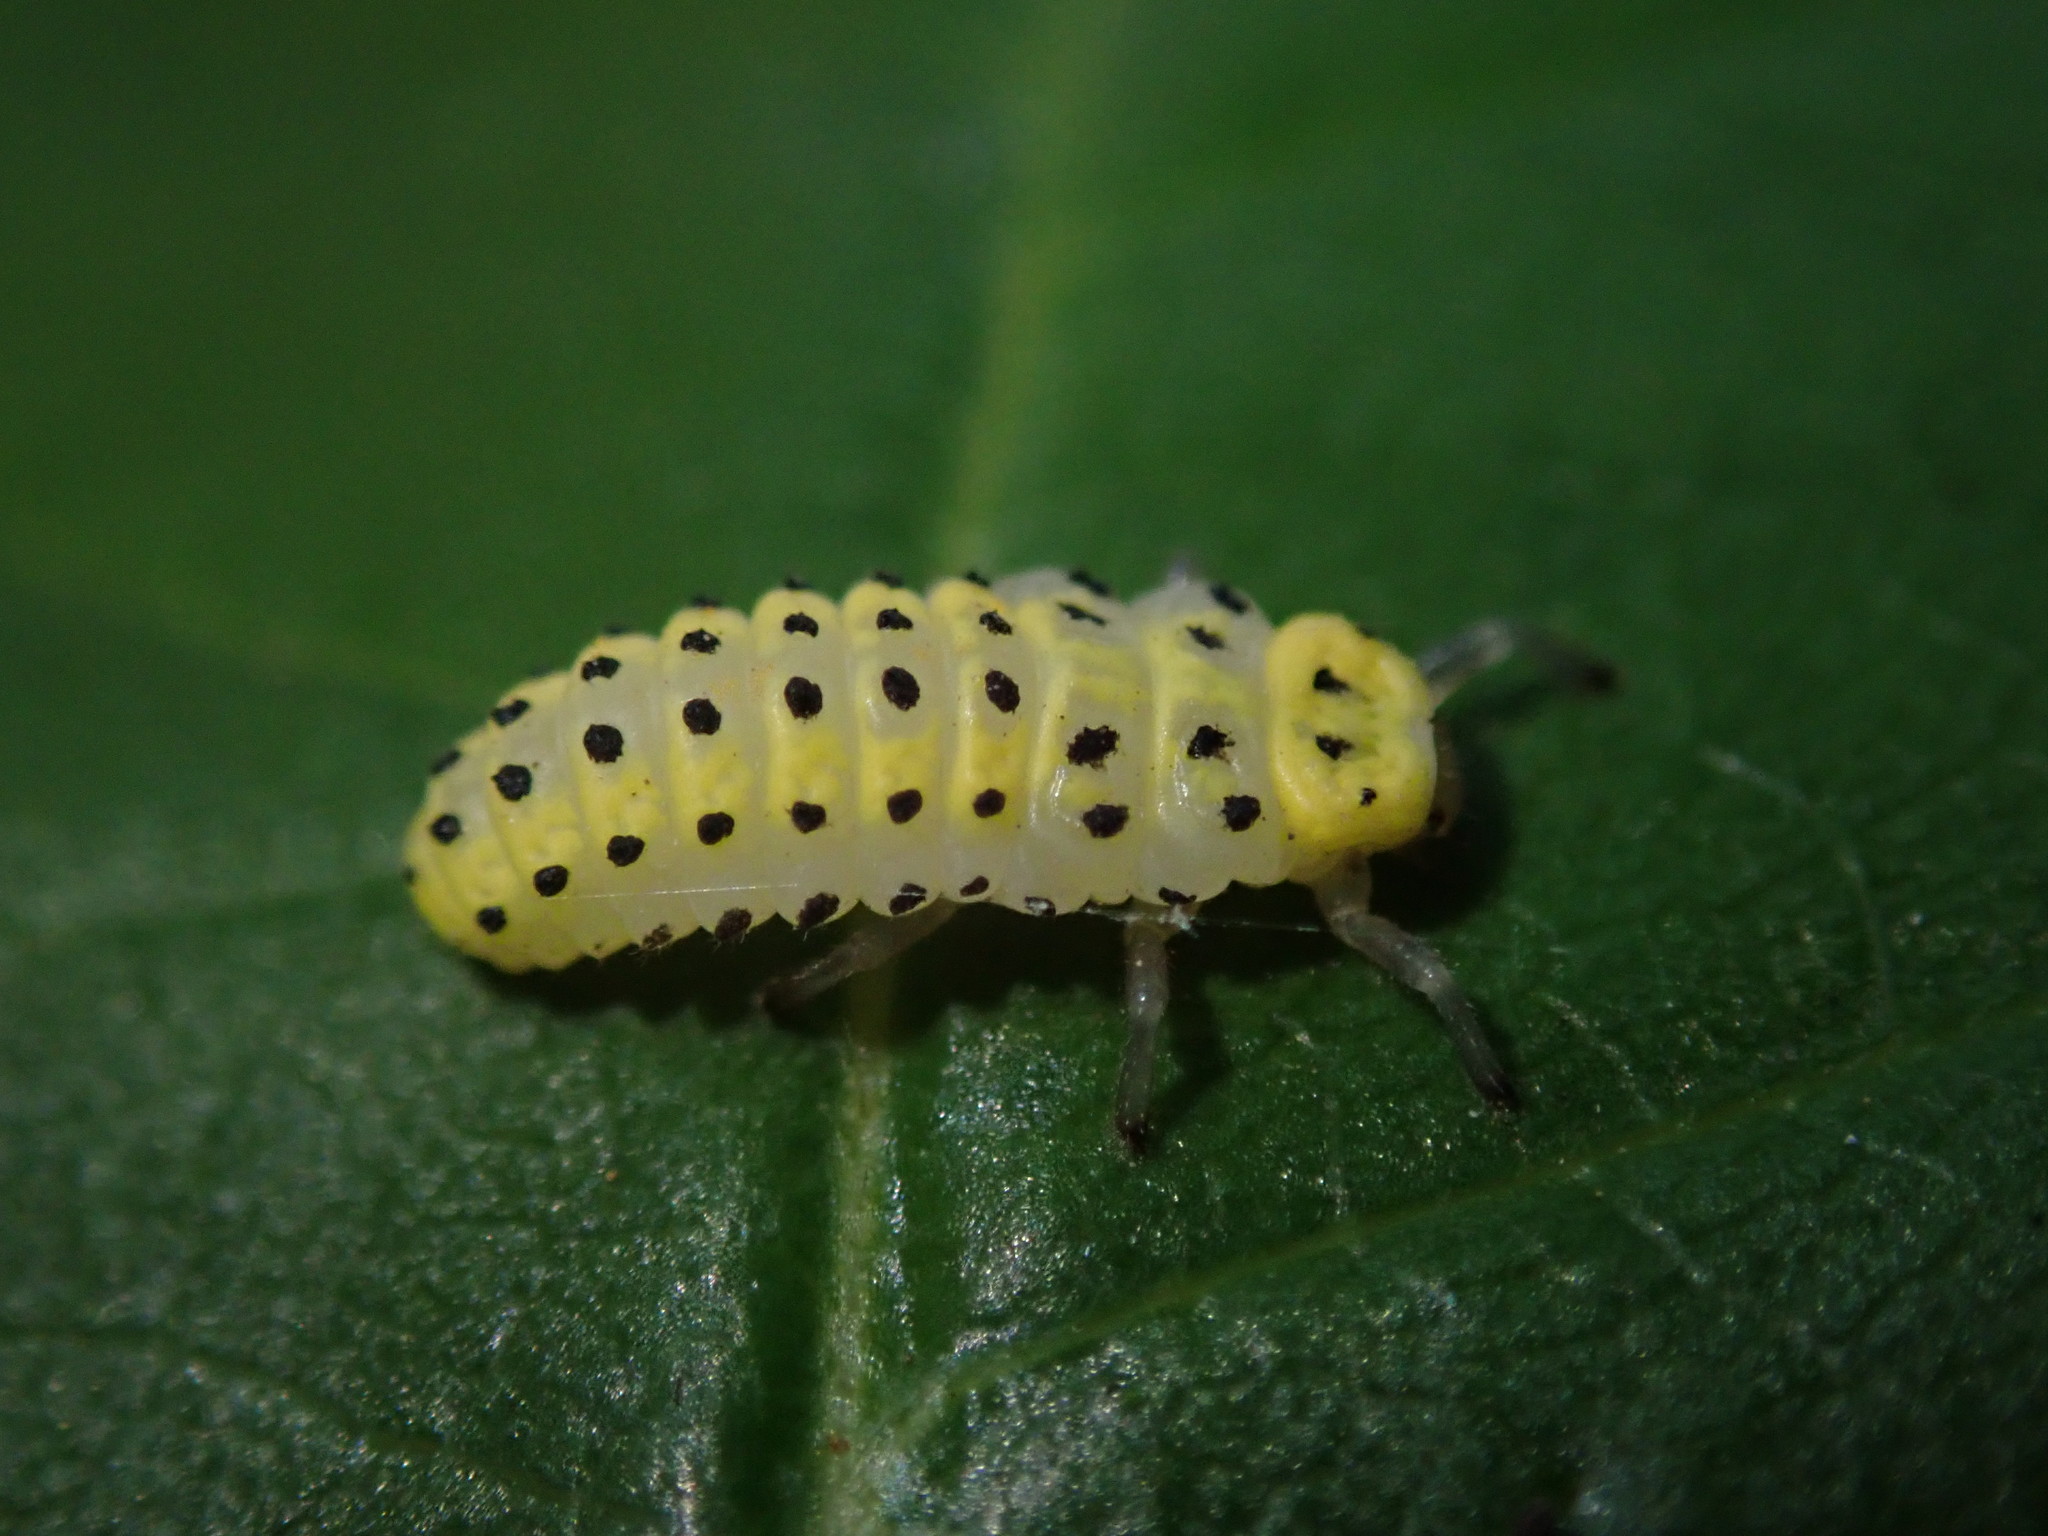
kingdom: Animalia
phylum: Arthropoda
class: Insecta
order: Coleoptera
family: Coccinellidae
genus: Halyzia
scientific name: Halyzia sedecimguttata
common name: Orange ladybird
